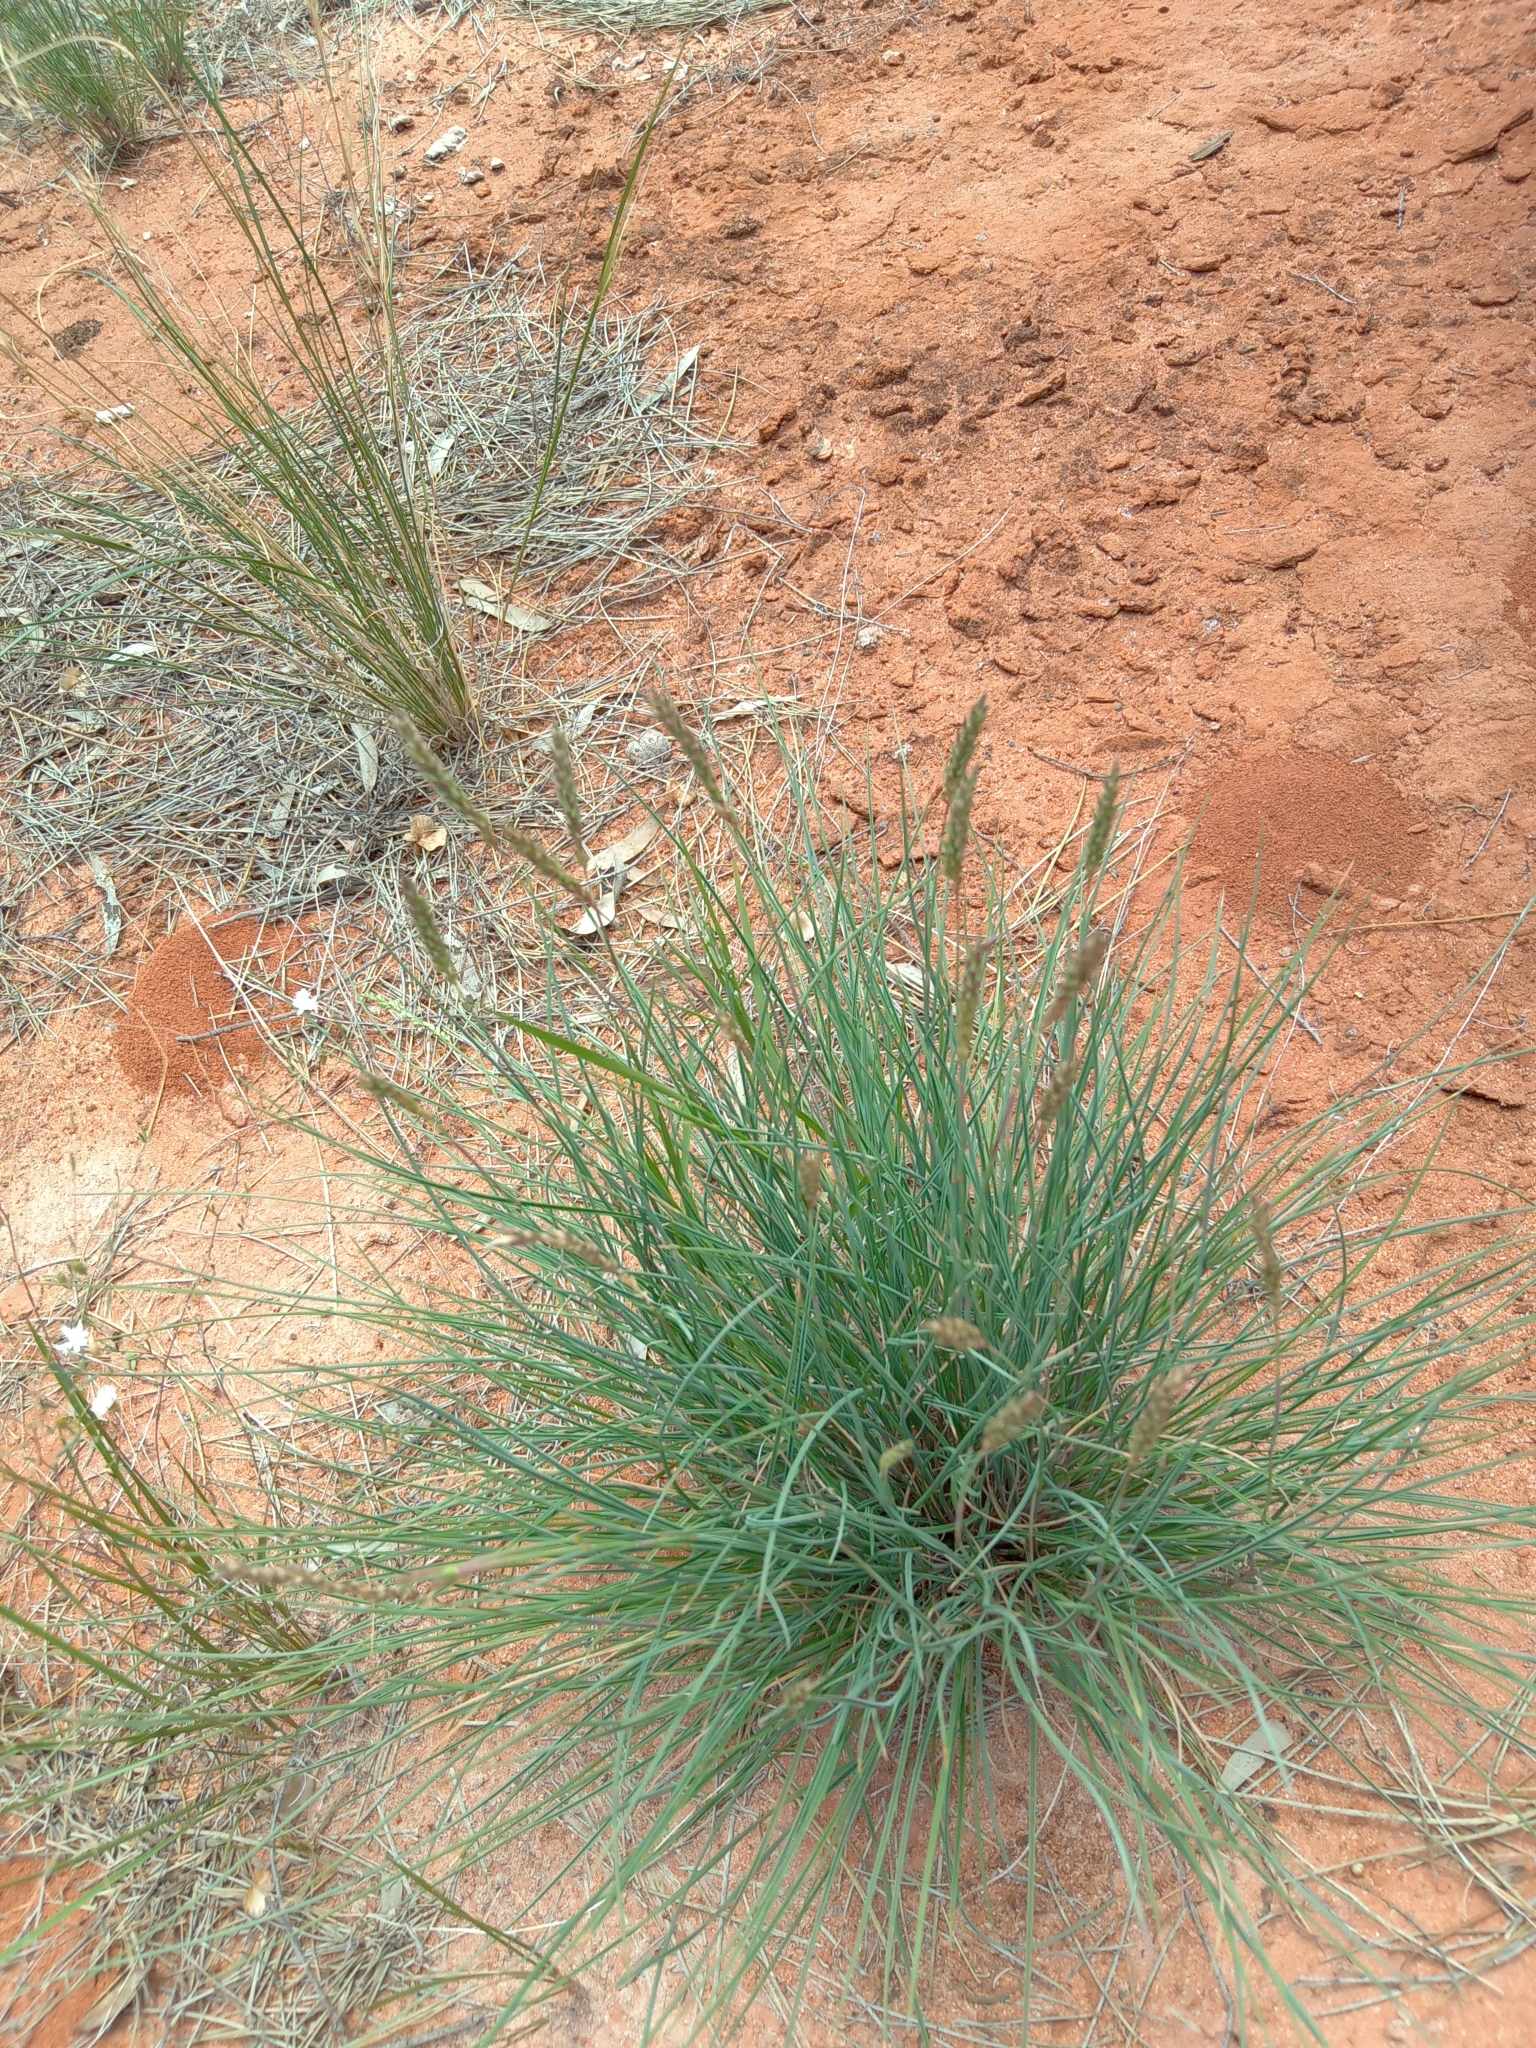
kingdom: Plantae
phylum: Tracheophyta
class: Liliopsida
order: Poales
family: Poaceae
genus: Amphipogon
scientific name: Amphipogon caricinus
